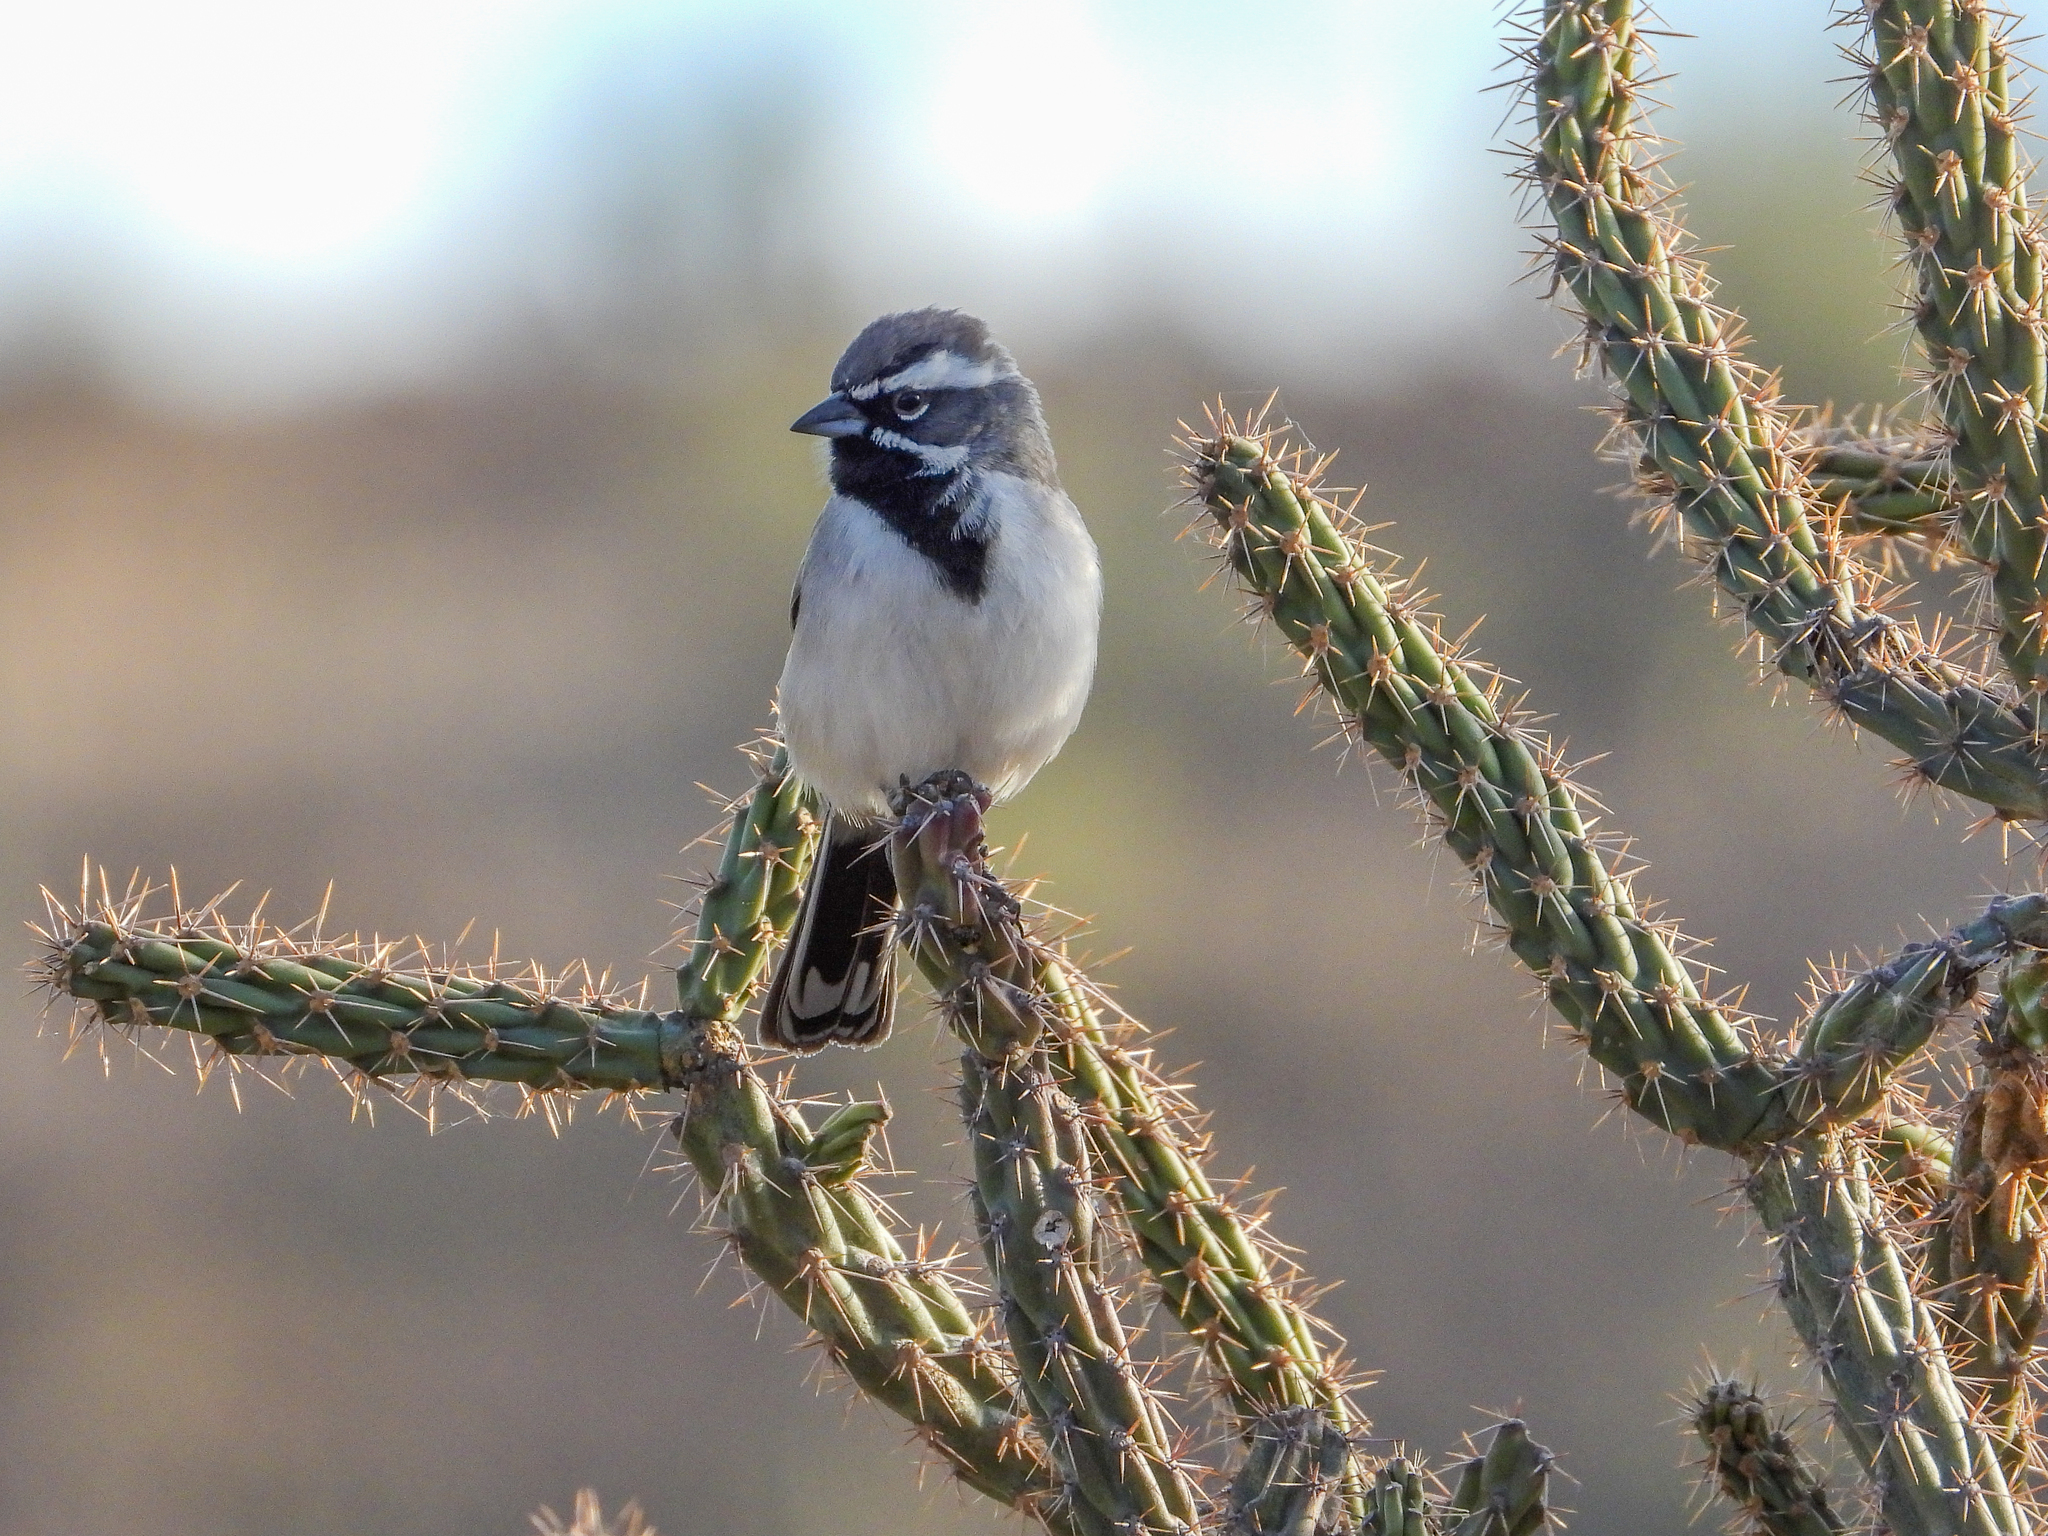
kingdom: Animalia
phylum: Chordata
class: Aves
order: Passeriformes
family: Passerellidae
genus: Amphispiza
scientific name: Amphispiza bilineata
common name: Black-throated sparrow
